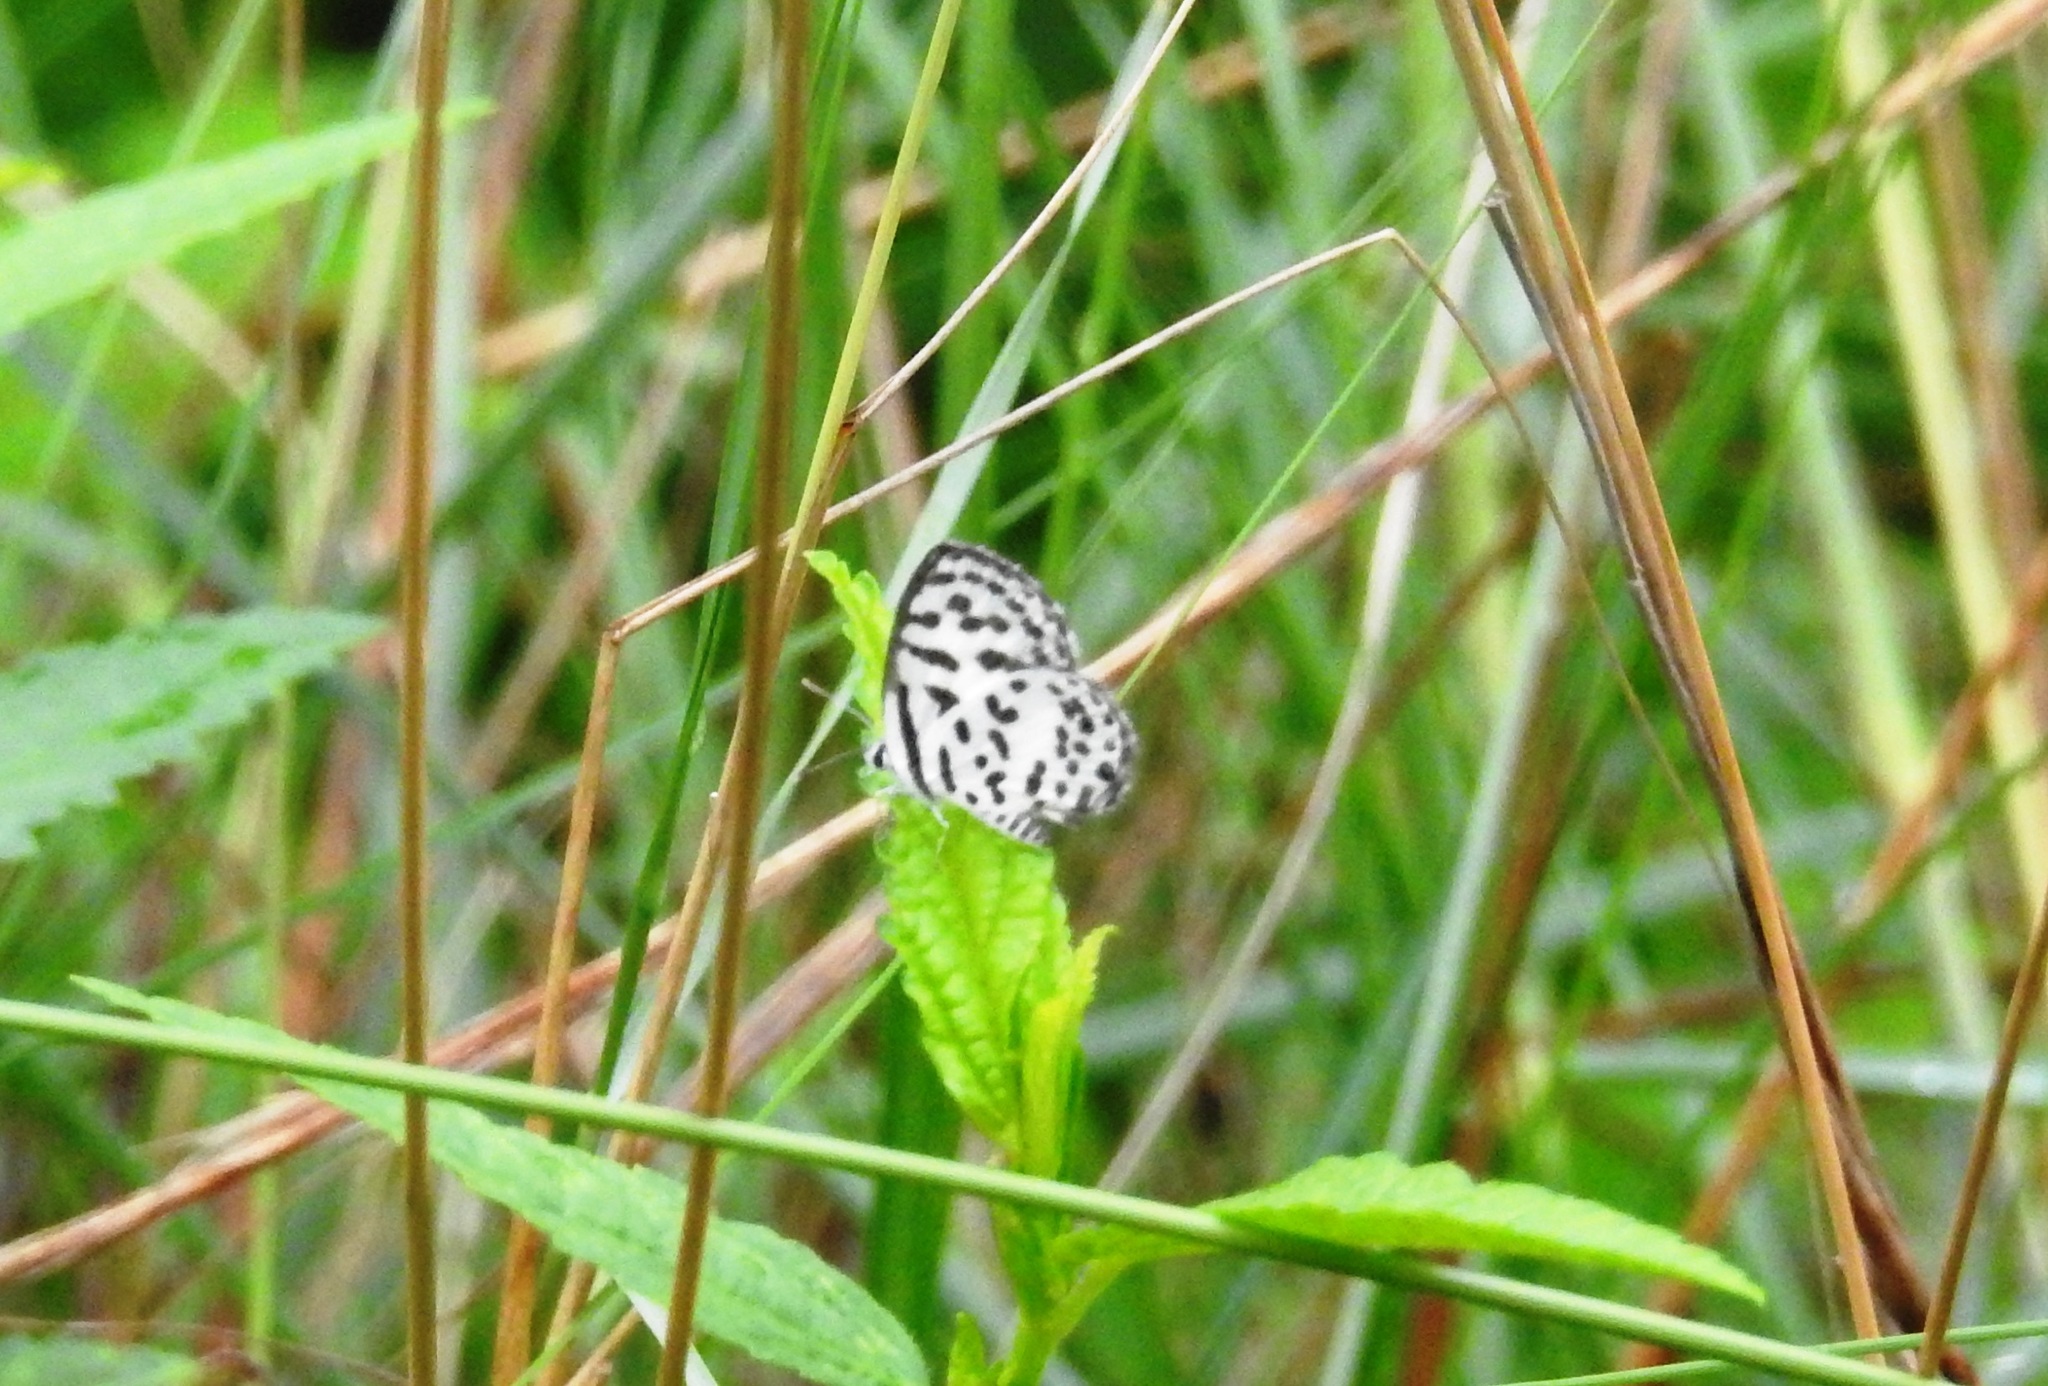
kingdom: Animalia
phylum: Arthropoda
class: Insecta
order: Lepidoptera
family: Lycaenidae
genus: Castalius
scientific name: Castalius rosimon
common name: Common pierrot
